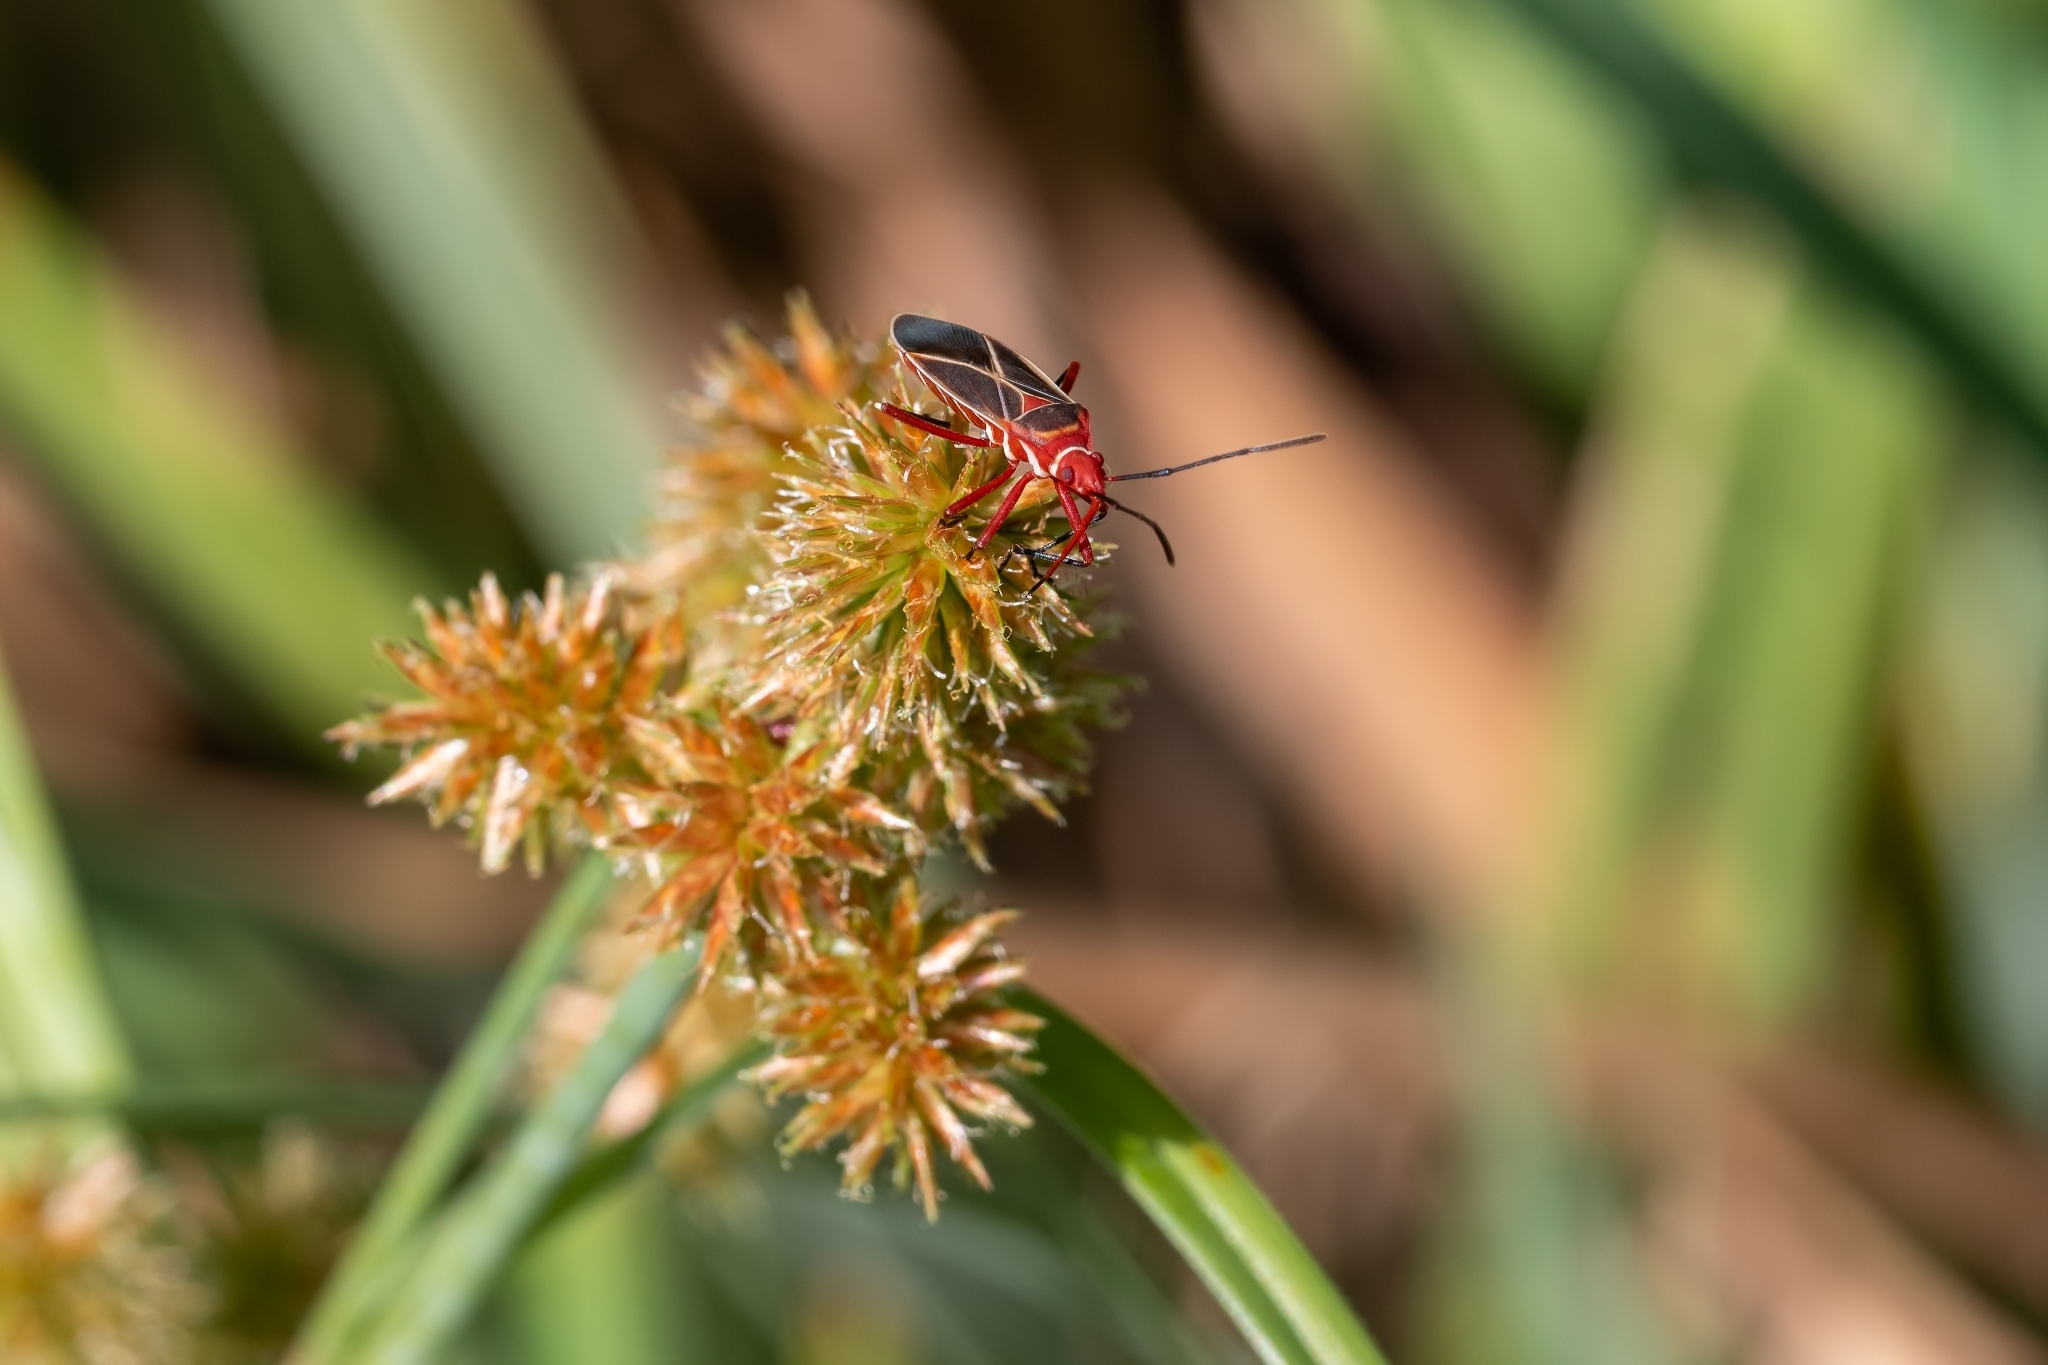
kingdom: Animalia
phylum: Arthropoda
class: Insecta
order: Hemiptera
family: Pyrrhocoridae
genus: Dysdercus
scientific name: Dysdercus suturellus
